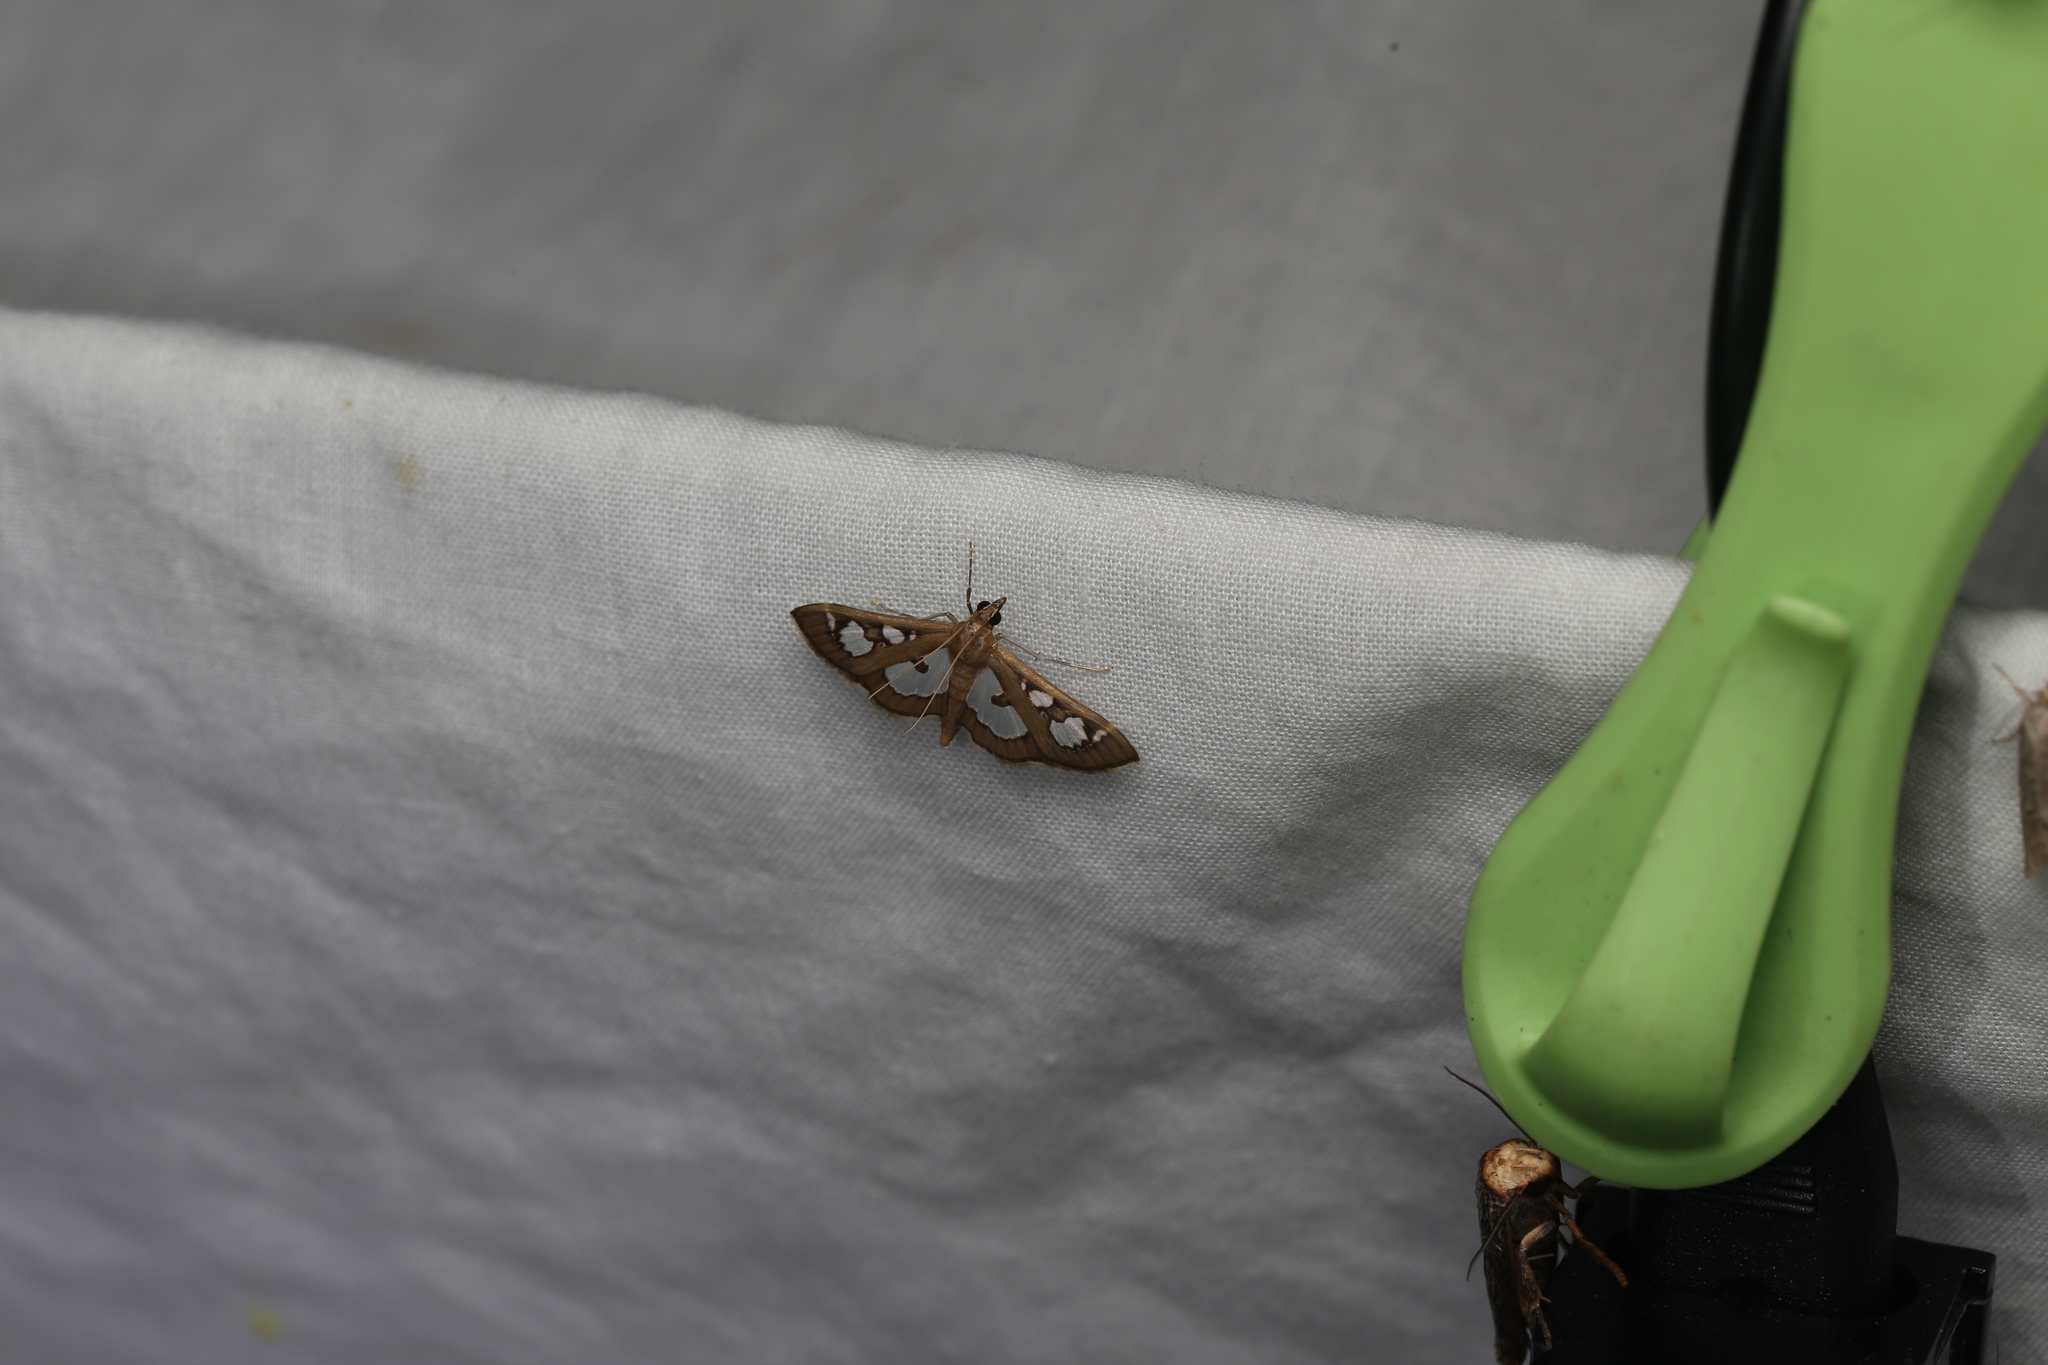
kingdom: Animalia
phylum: Arthropoda
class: Insecta
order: Lepidoptera
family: Crambidae
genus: Glyphodes
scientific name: Glyphodes microta
